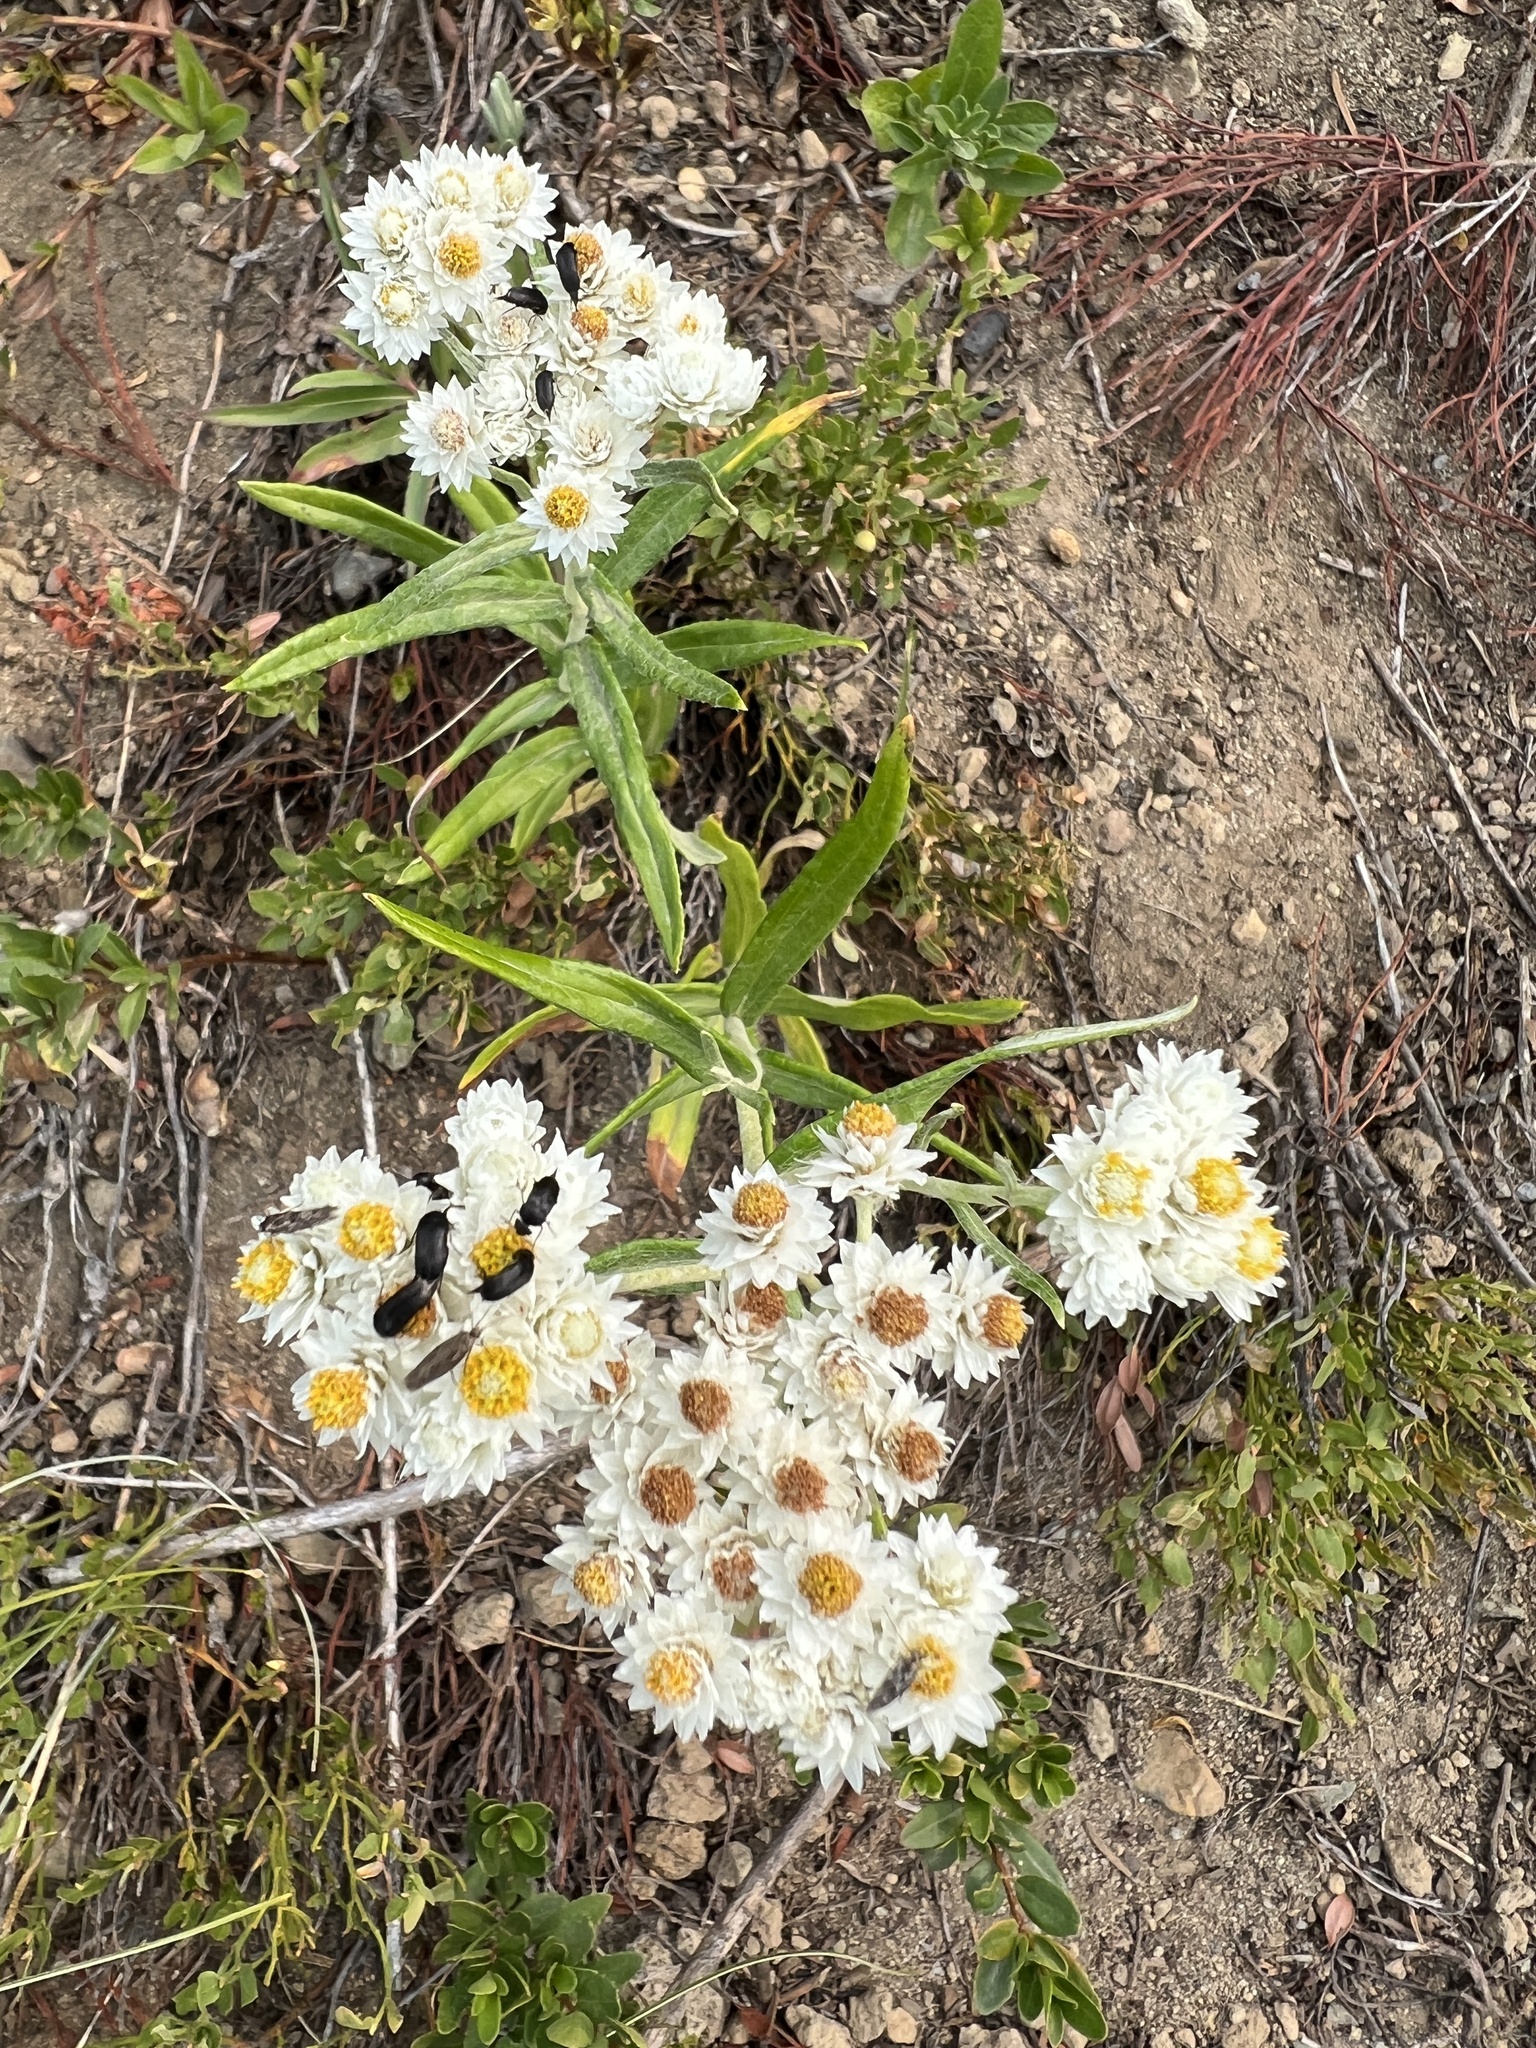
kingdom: Plantae
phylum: Tracheophyta
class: Magnoliopsida
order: Asterales
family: Asteraceae
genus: Anaphalis
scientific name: Anaphalis margaritacea
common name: Pearly everlasting
